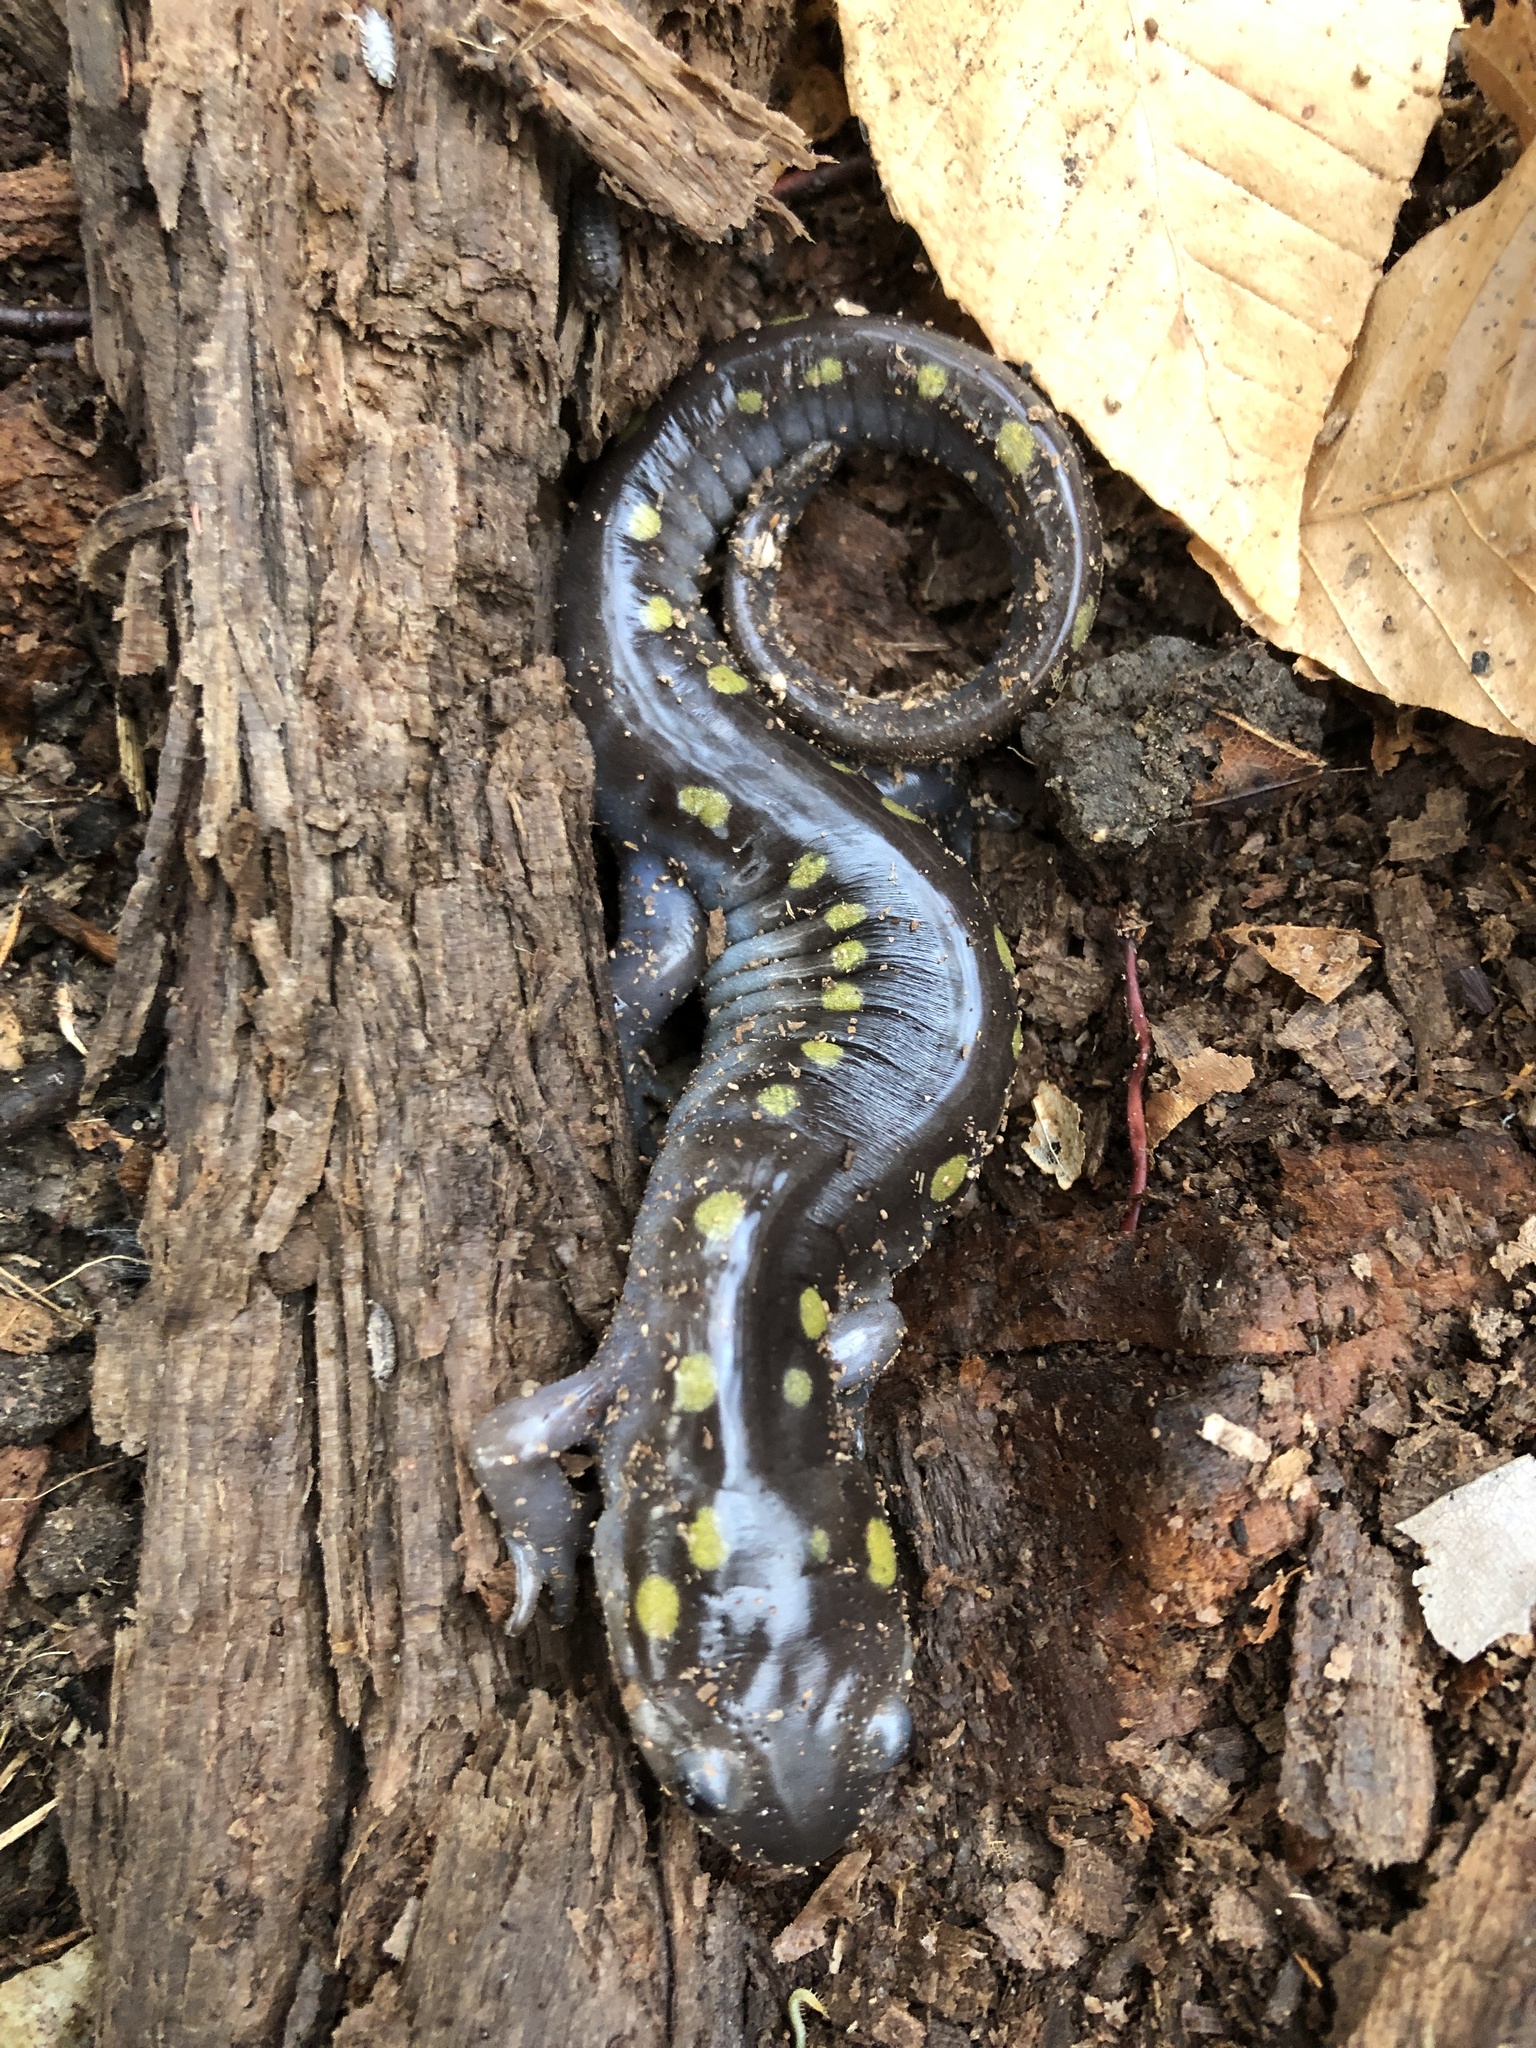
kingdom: Animalia
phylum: Chordata
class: Amphibia
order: Caudata
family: Ambystomatidae
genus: Ambystoma
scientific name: Ambystoma maculatum
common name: Spotted salamander
